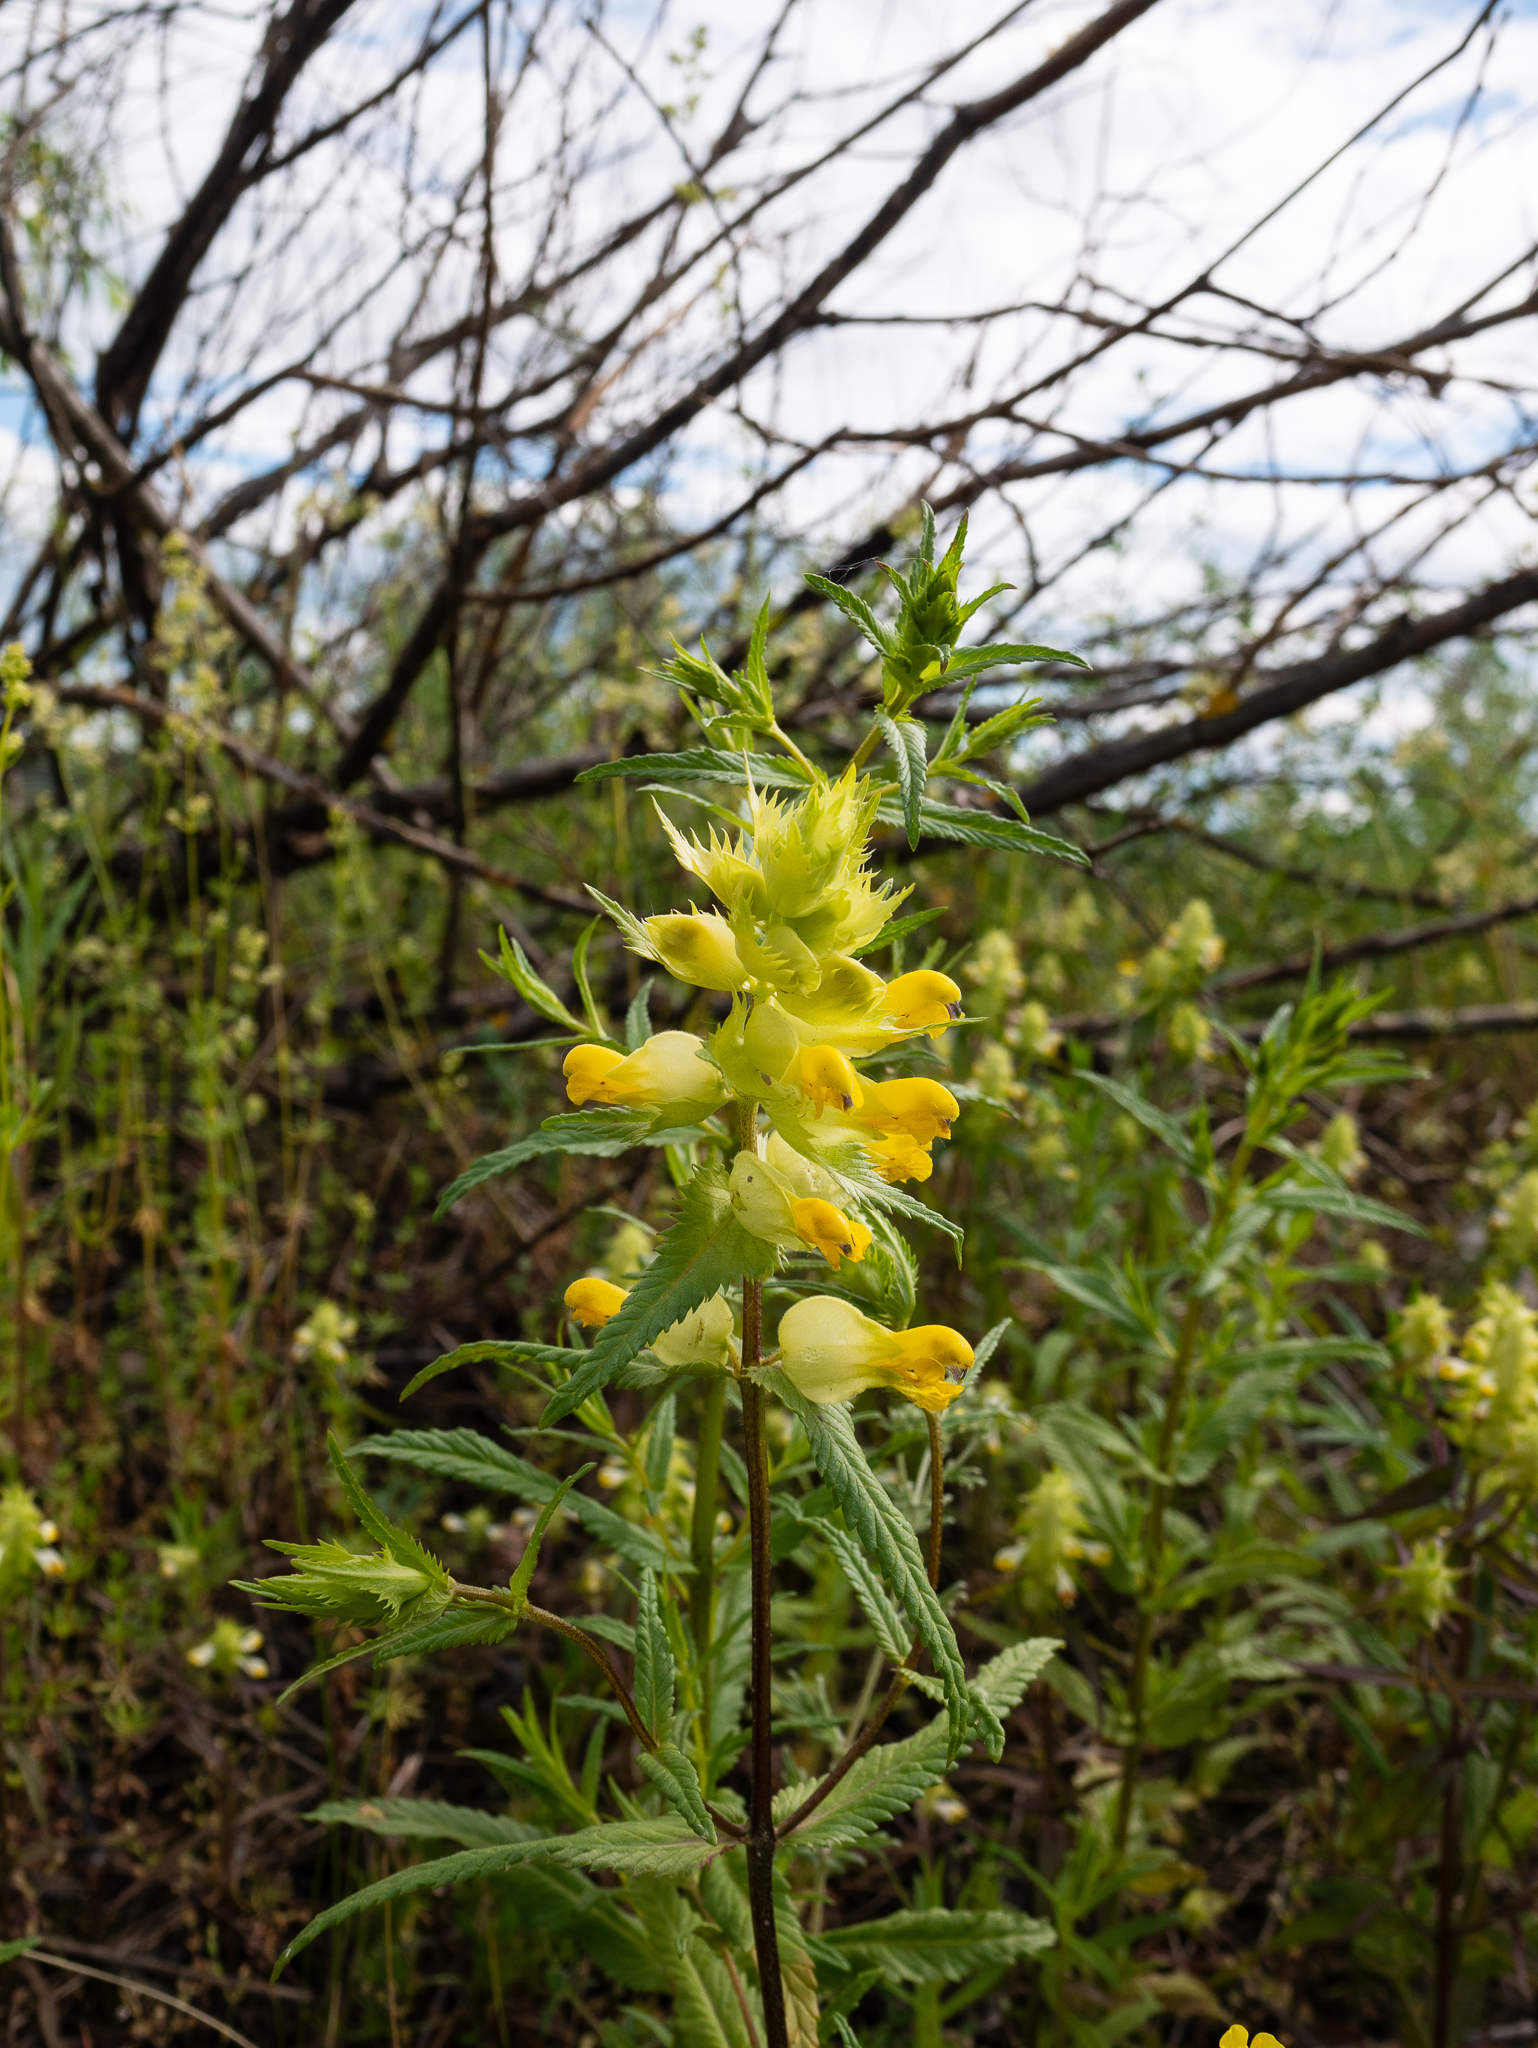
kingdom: Plantae
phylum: Tracheophyta
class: Magnoliopsida
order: Lamiales
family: Orobanchaceae
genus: Rhinanthus
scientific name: Rhinanthus serotinus
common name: Late-flowering yellow rattle
